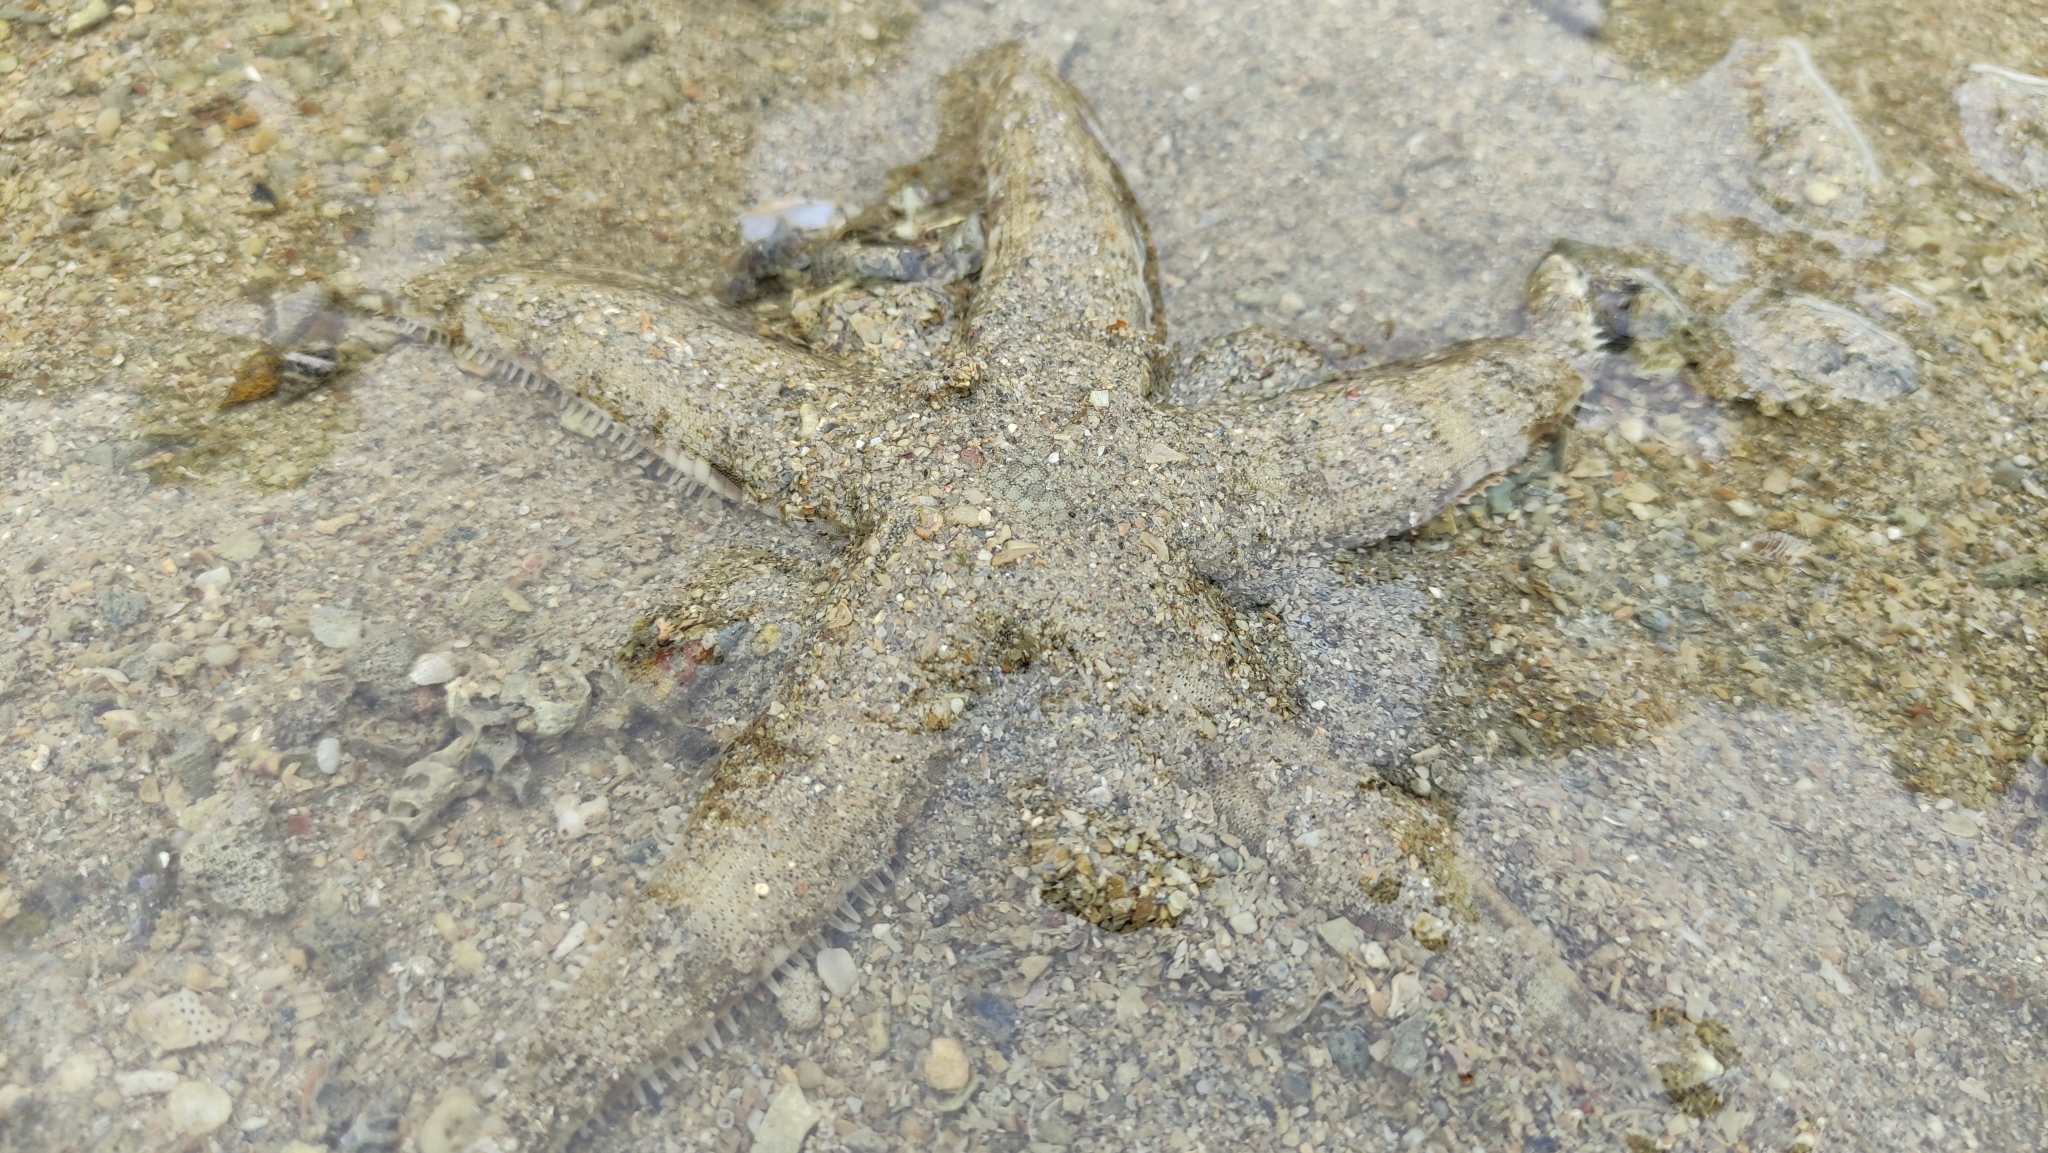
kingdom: Animalia
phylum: Echinodermata
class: Asteroidea
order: Valvatida
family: Archasteridae
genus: Archaster
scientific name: Archaster typicus
